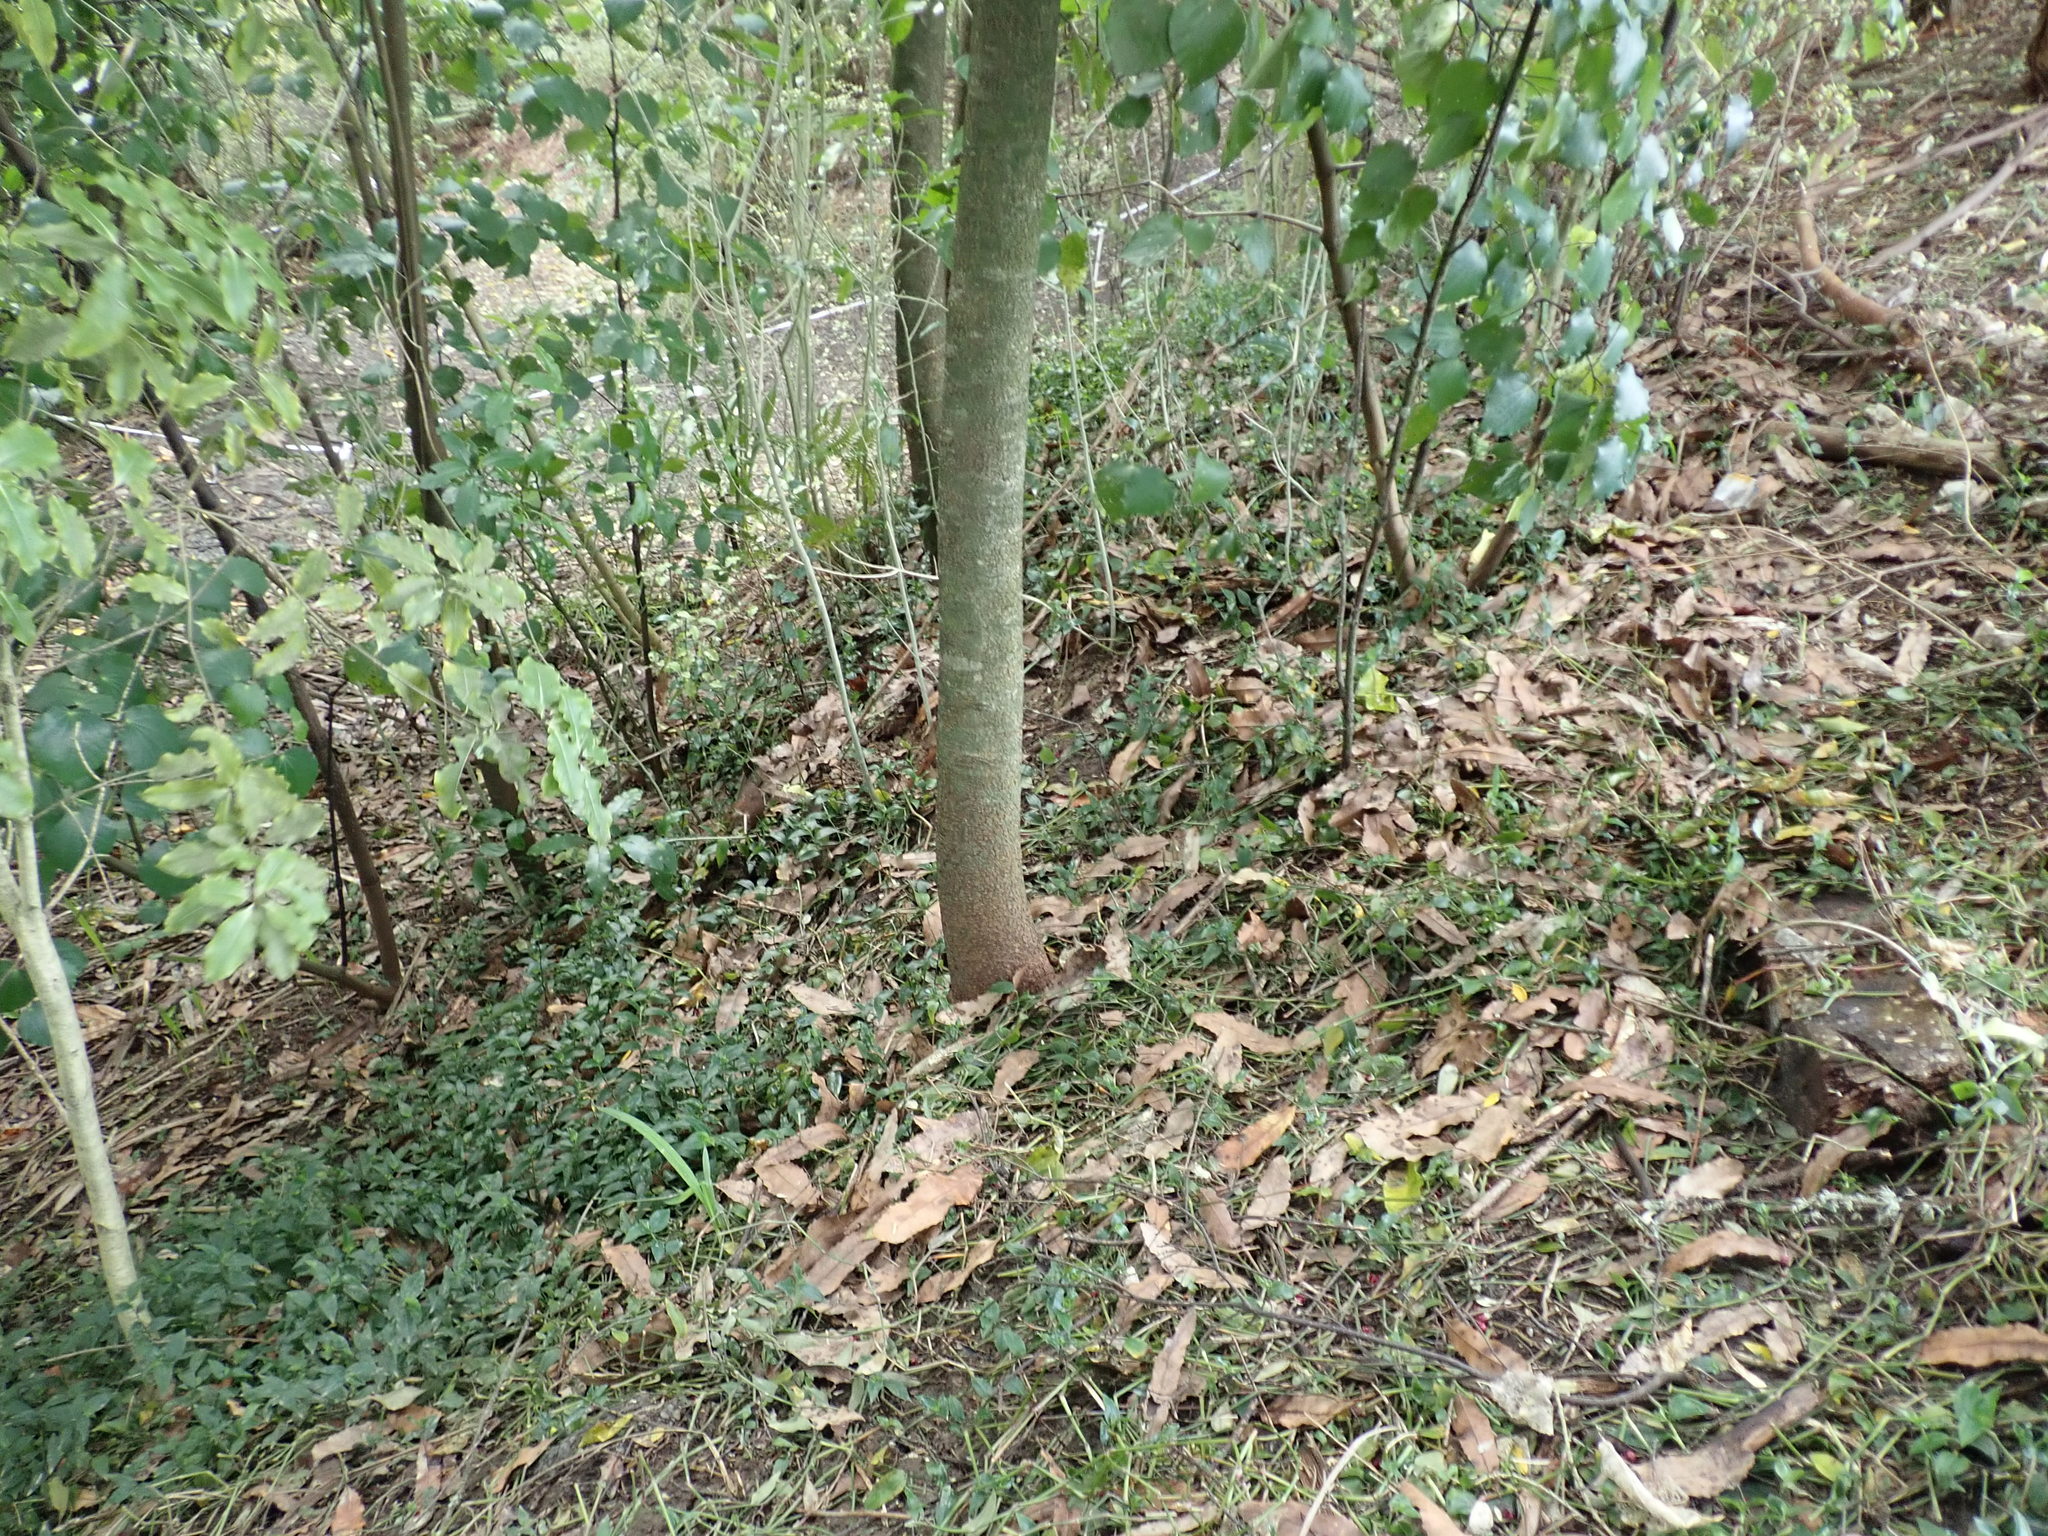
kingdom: Plantae
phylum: Tracheophyta
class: Magnoliopsida
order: Apiales
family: Pittosporaceae
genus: Pittosporum
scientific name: Pittosporum eugenioides
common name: Lemonwood
